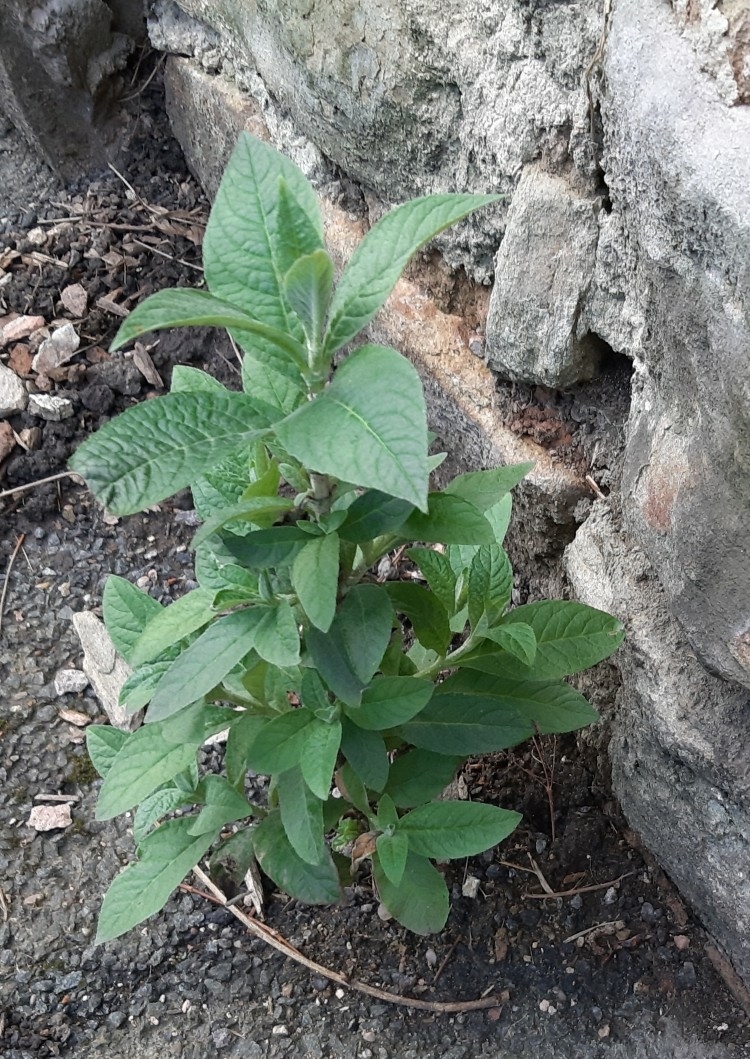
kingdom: Plantae
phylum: Tracheophyta
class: Magnoliopsida
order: Lamiales
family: Scrophulariaceae
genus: Buddleja
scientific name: Buddleja davidii
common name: Butterfly-bush
